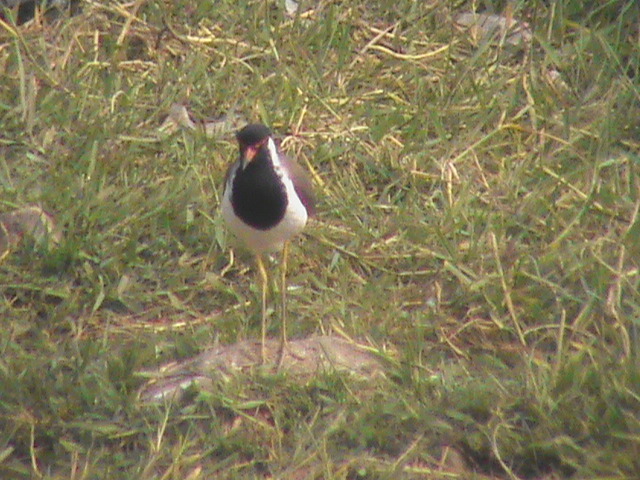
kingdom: Animalia
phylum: Chordata
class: Aves
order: Charadriiformes
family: Charadriidae
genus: Vanellus
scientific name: Vanellus indicus
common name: Red-wattled lapwing
